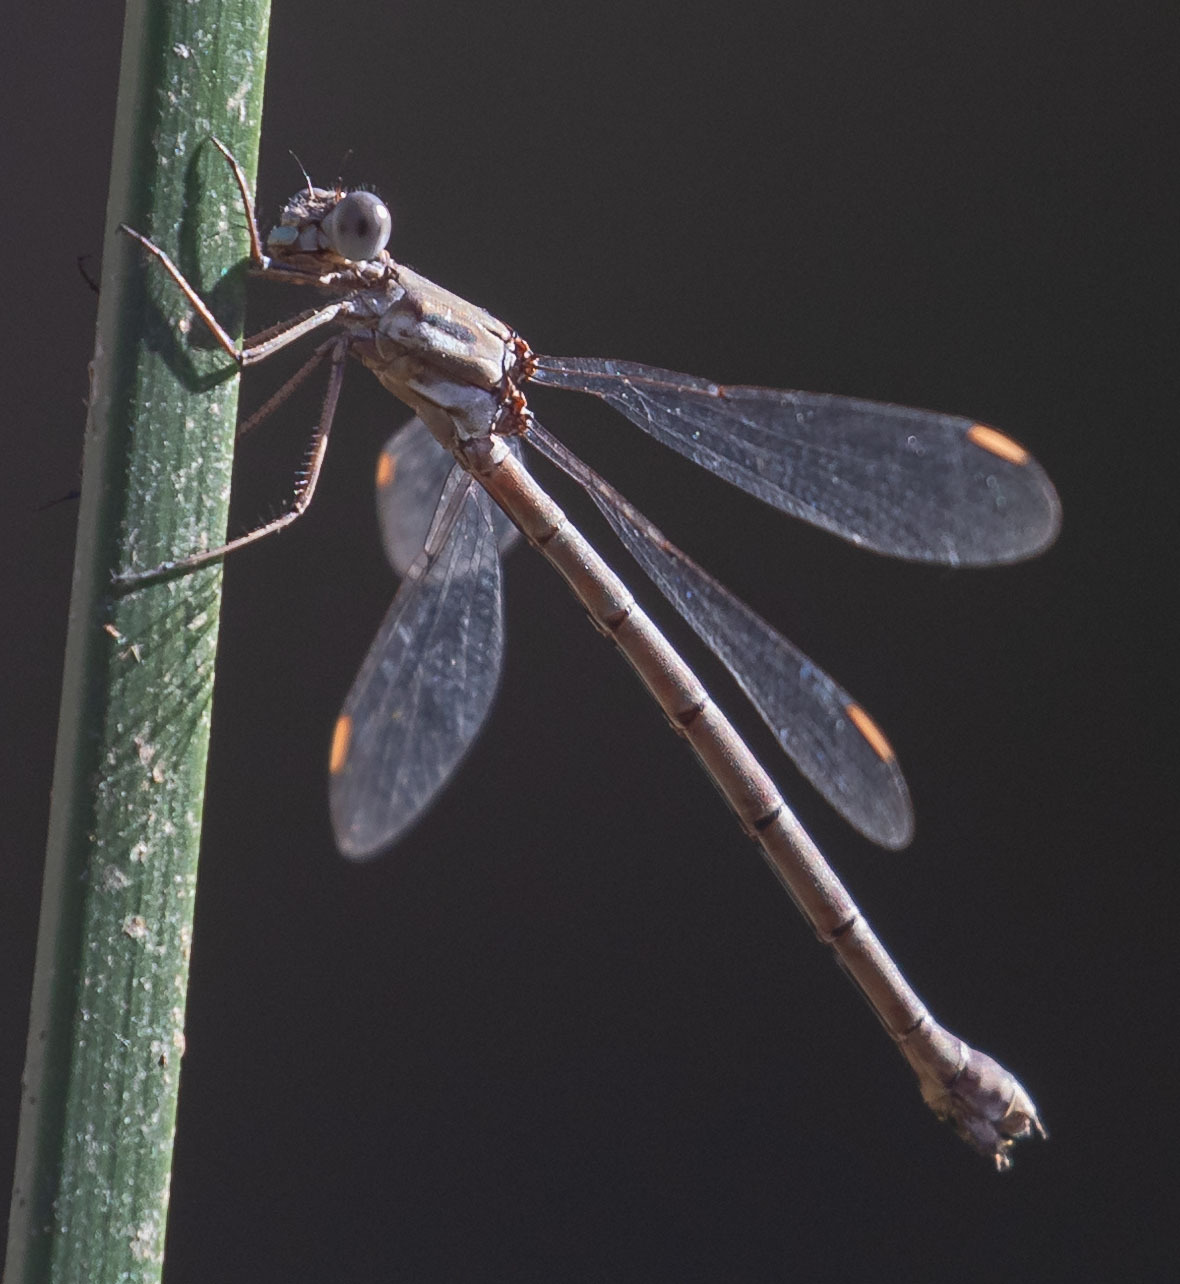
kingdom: Animalia
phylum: Arthropoda
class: Insecta
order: Odonata
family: Lestidae
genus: Archilestes
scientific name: Archilestes californicus
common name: California spreadwing
